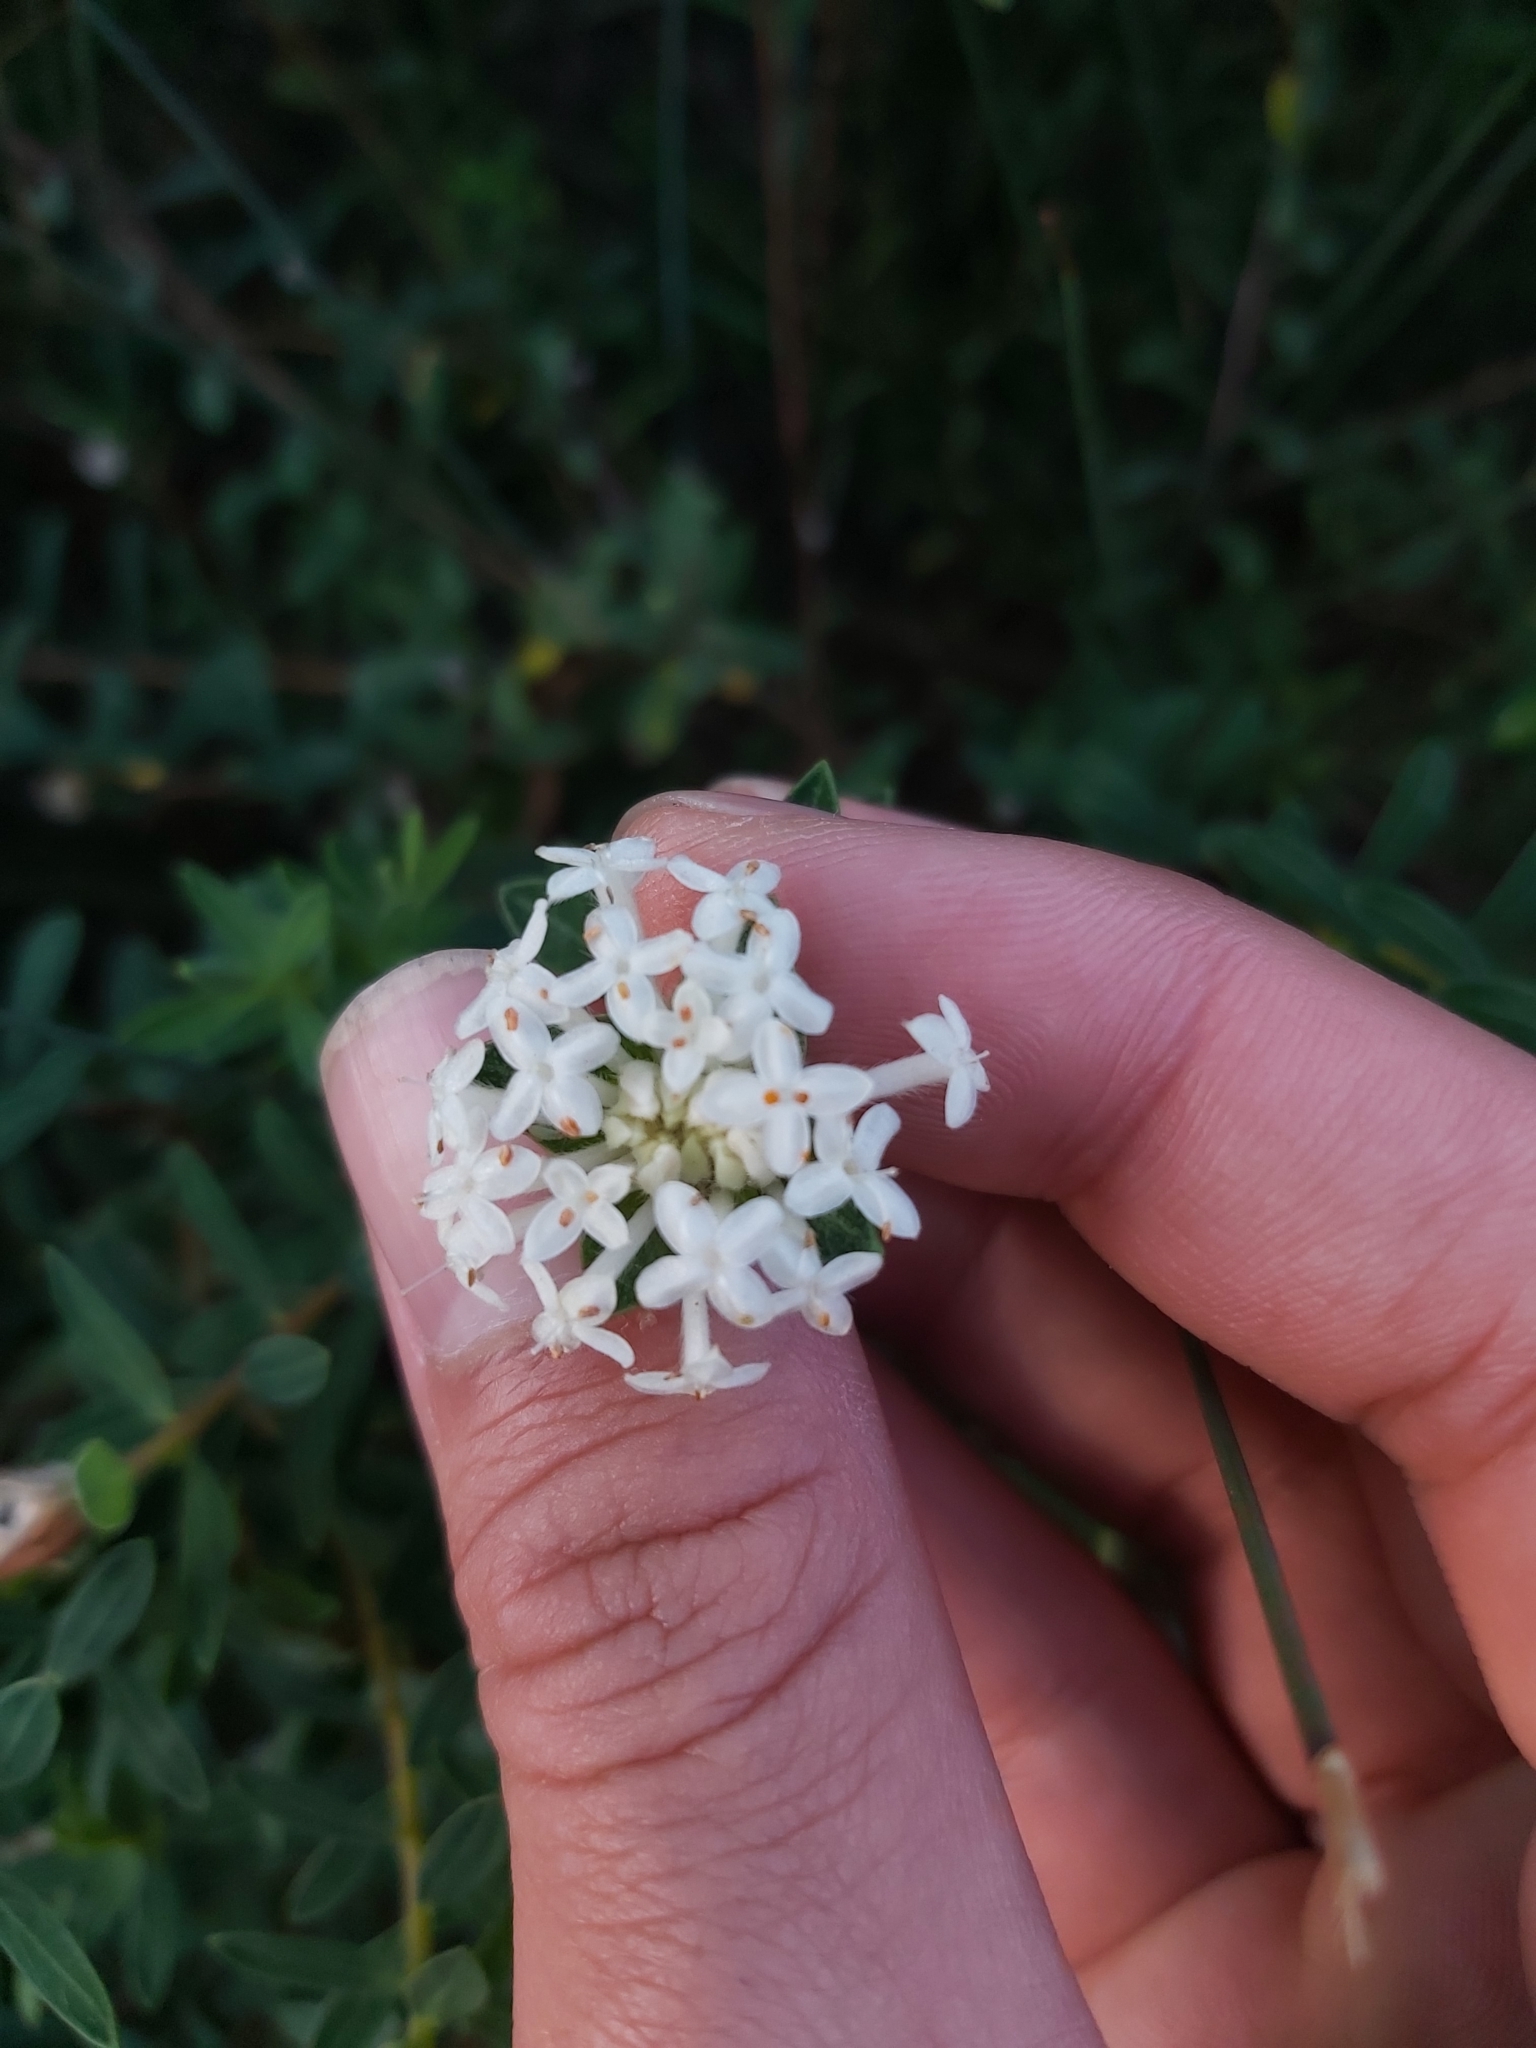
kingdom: Plantae
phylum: Tracheophyta
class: Magnoliopsida
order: Malvales
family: Thymelaeaceae
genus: Pimelea
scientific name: Pimelea linifolia
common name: Queen-of-the-bush
